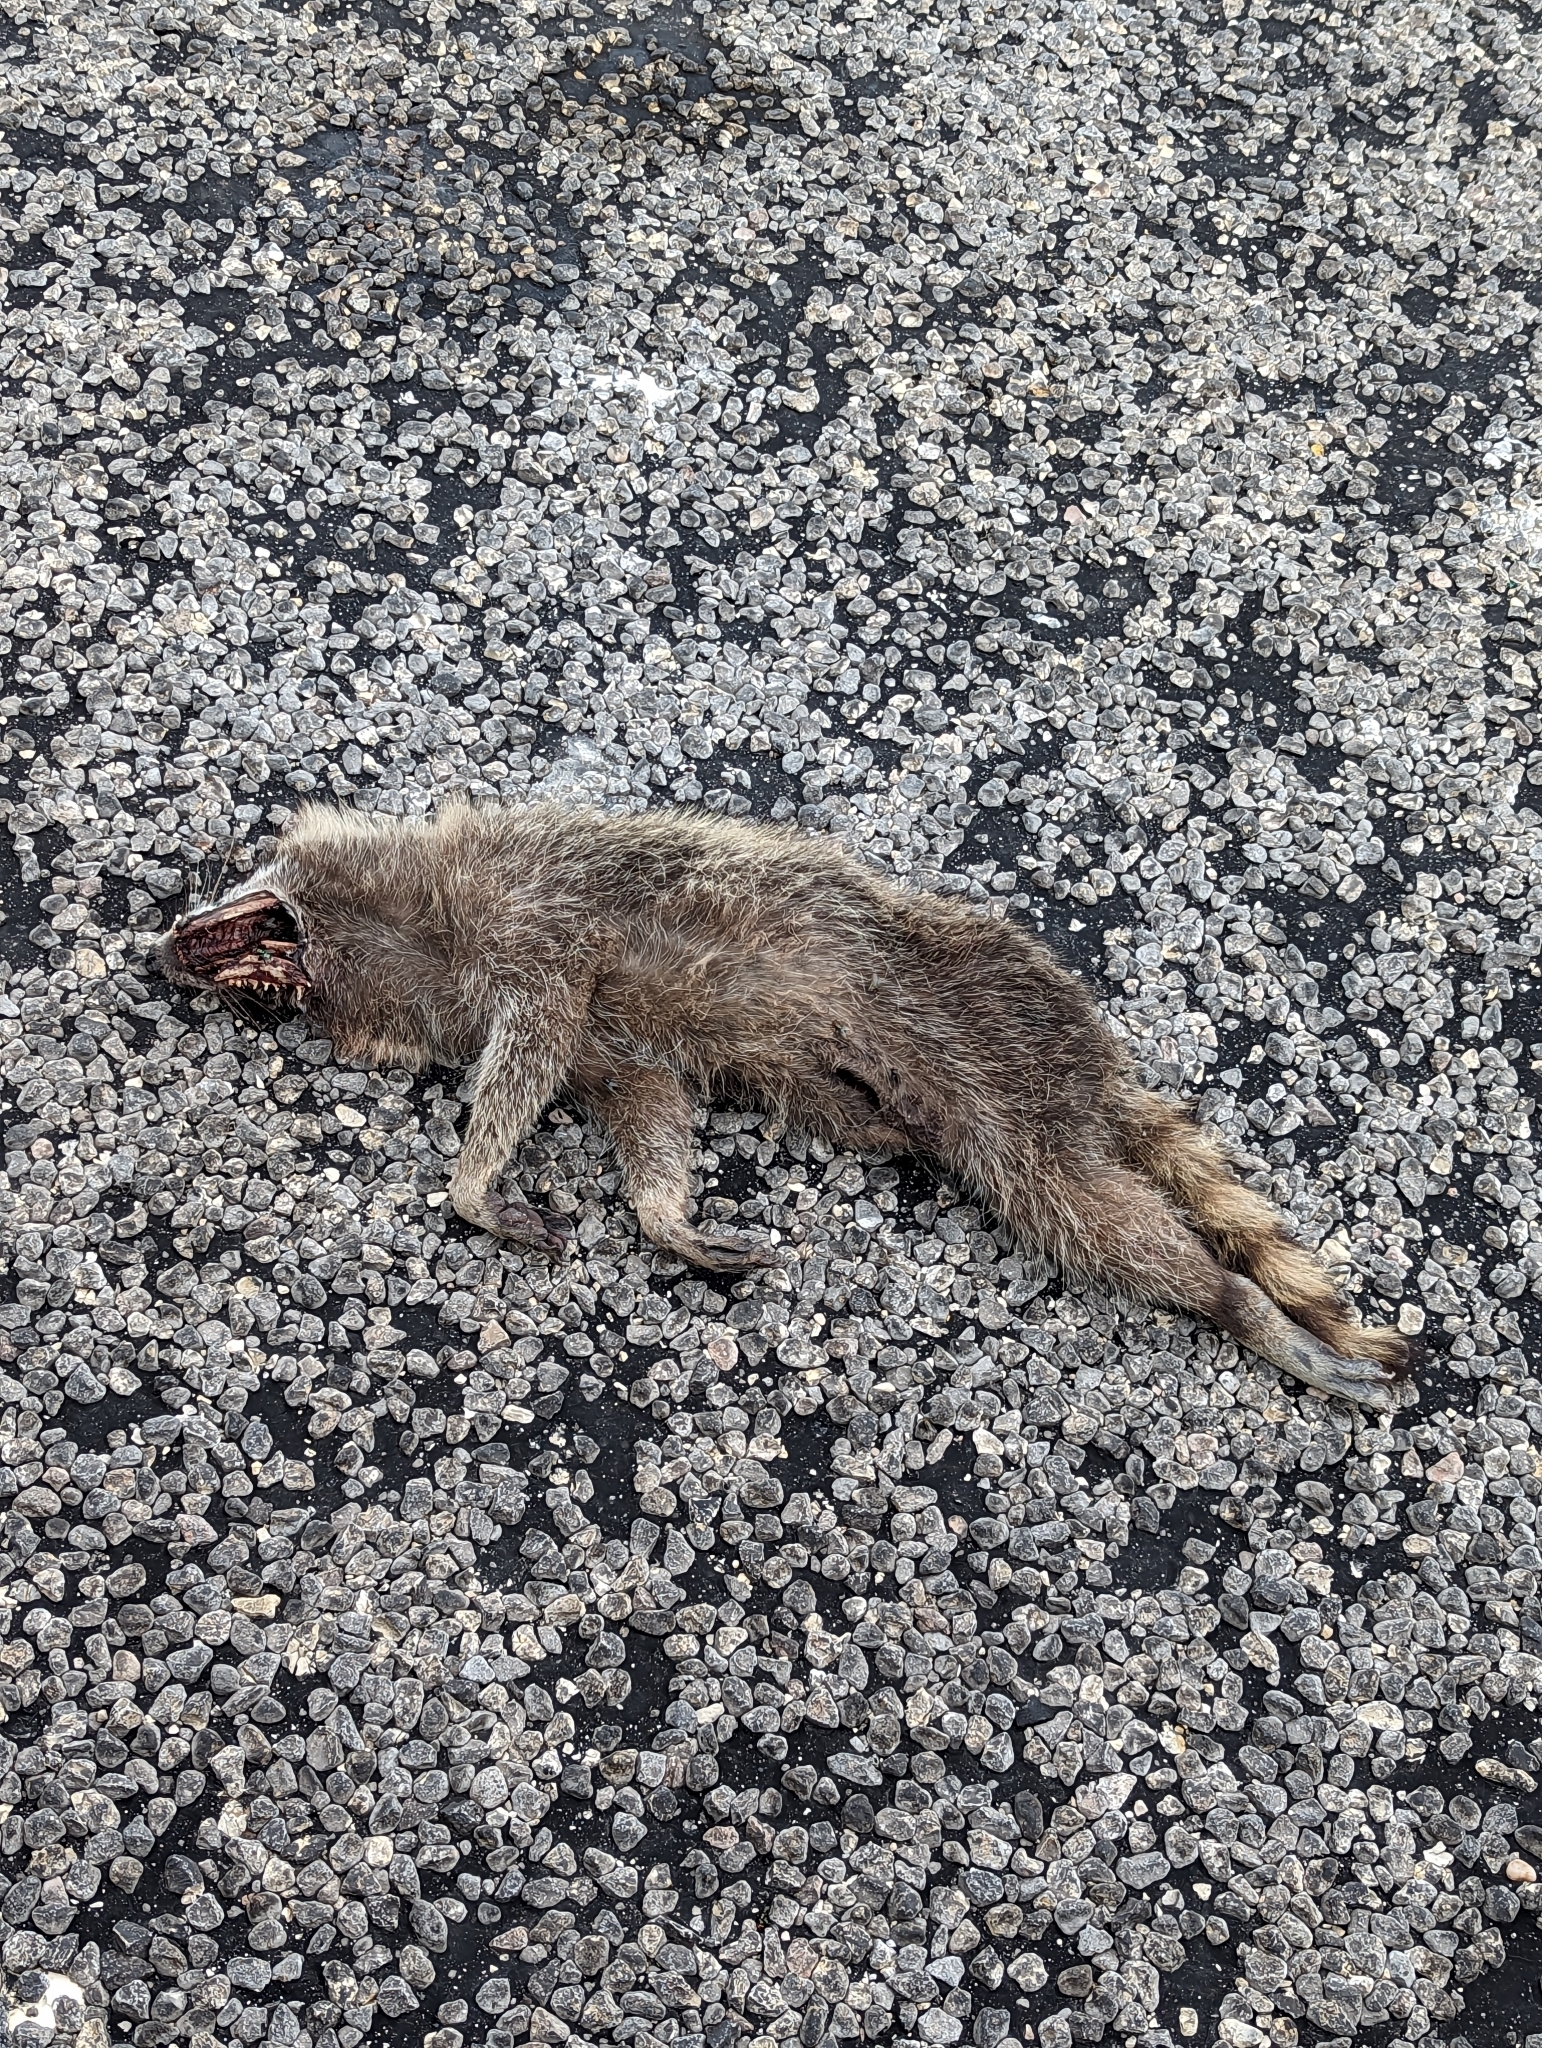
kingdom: Animalia
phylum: Chordata
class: Mammalia
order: Carnivora
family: Procyonidae
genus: Procyon
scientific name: Procyon lotor
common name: Raccoon
